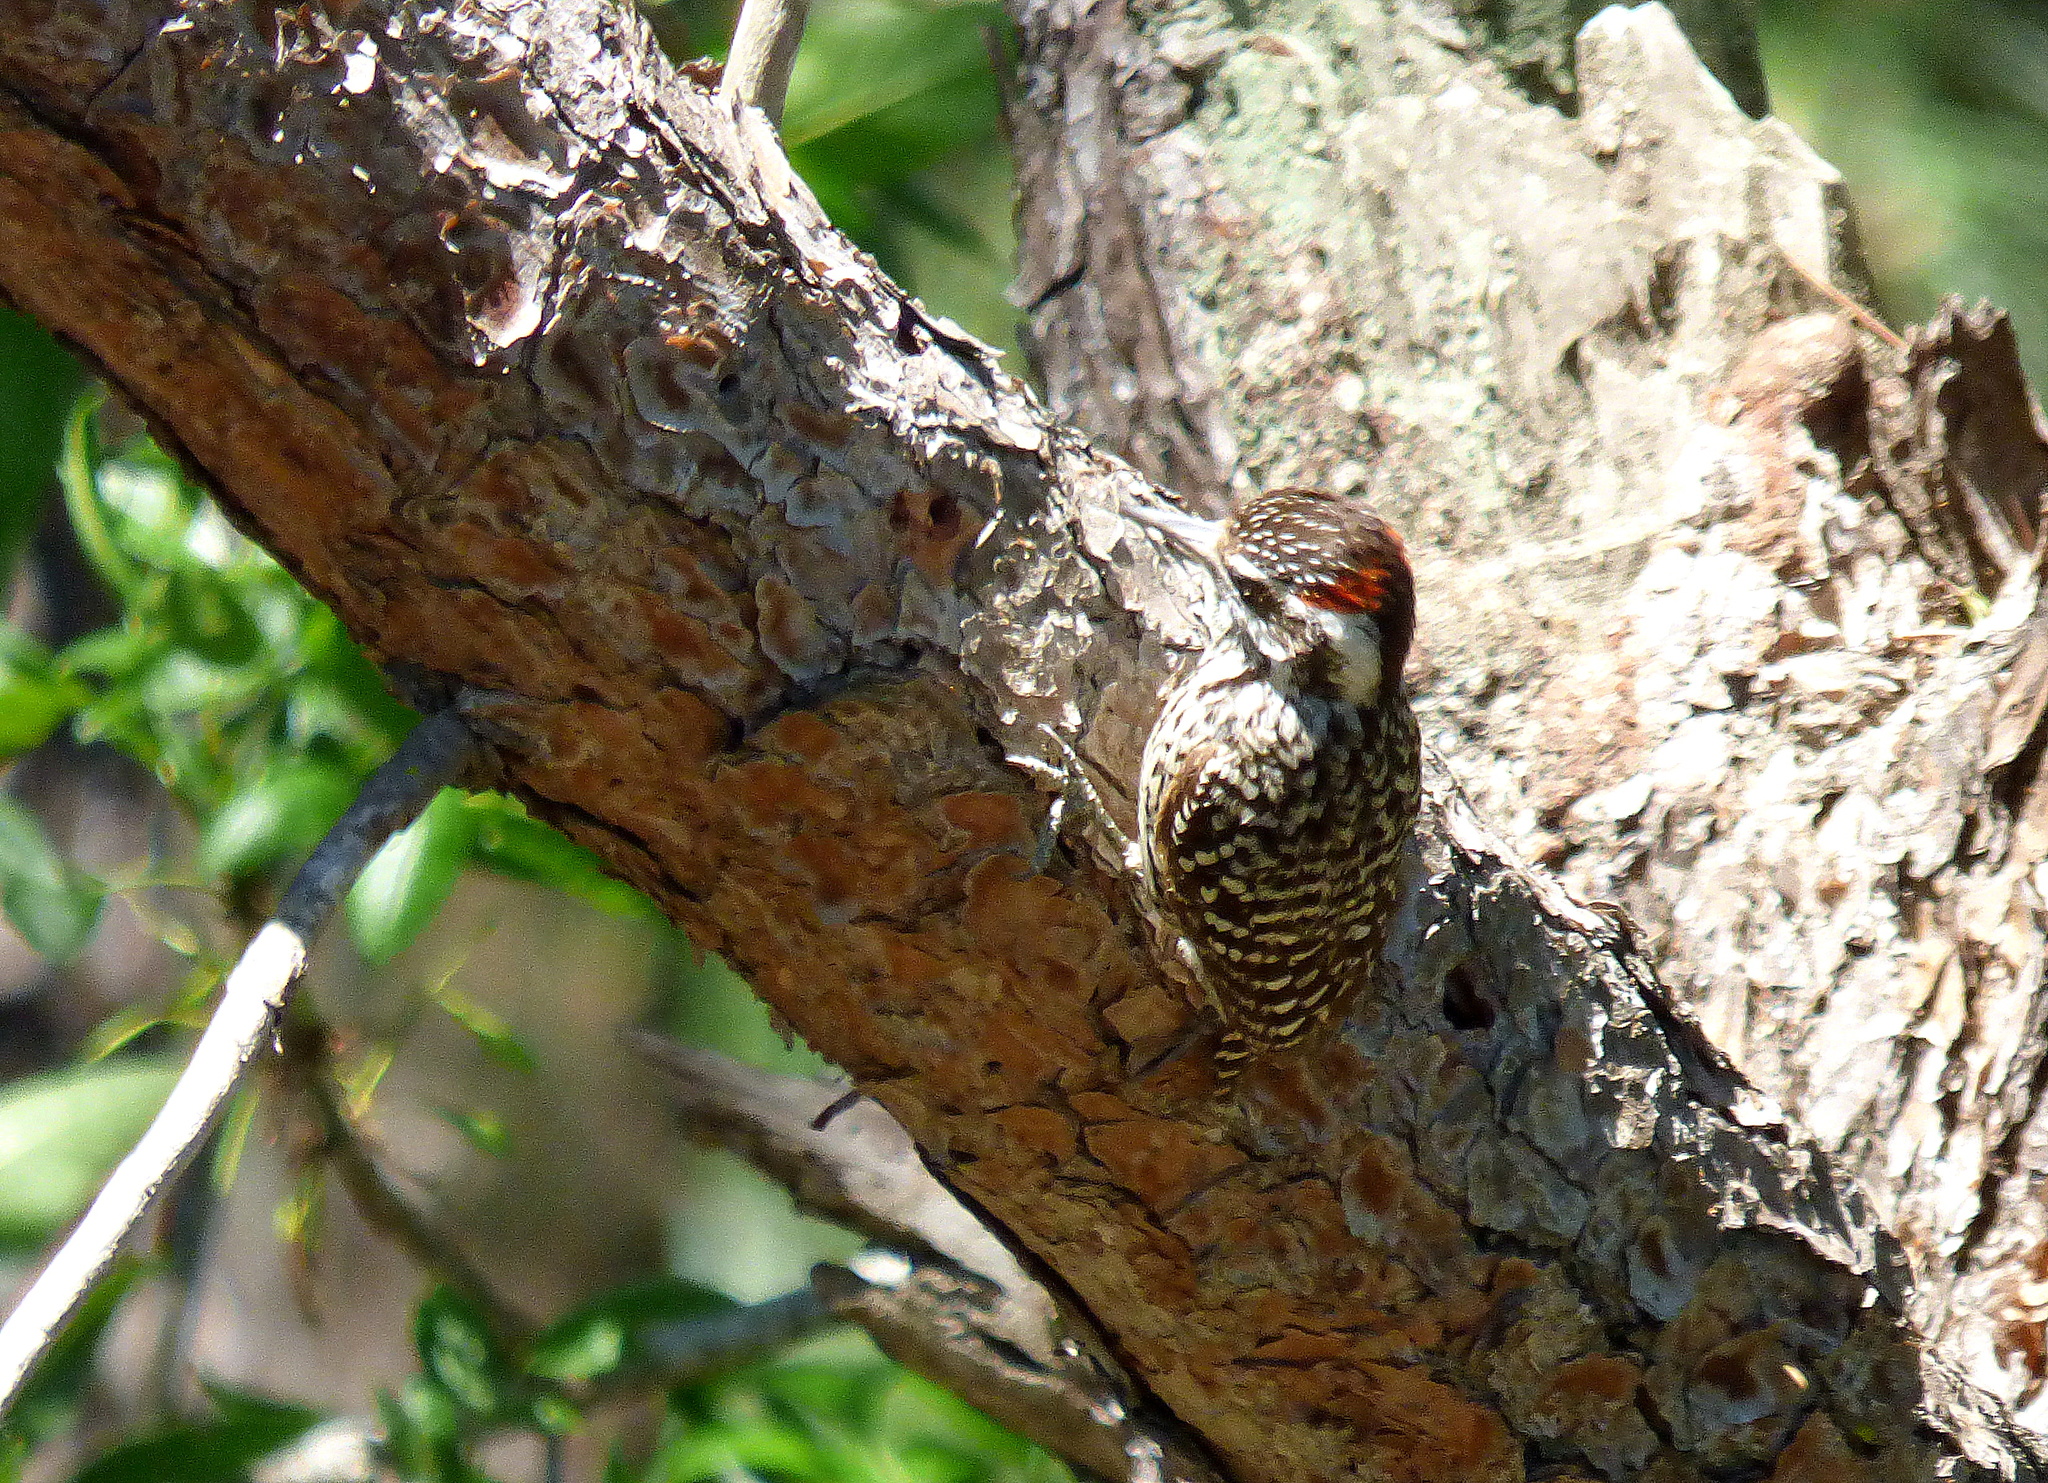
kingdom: Animalia
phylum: Chordata
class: Aves
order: Piciformes
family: Picidae
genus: Veniliornis
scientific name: Veniliornis mixtus
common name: Checkered woodpecker
